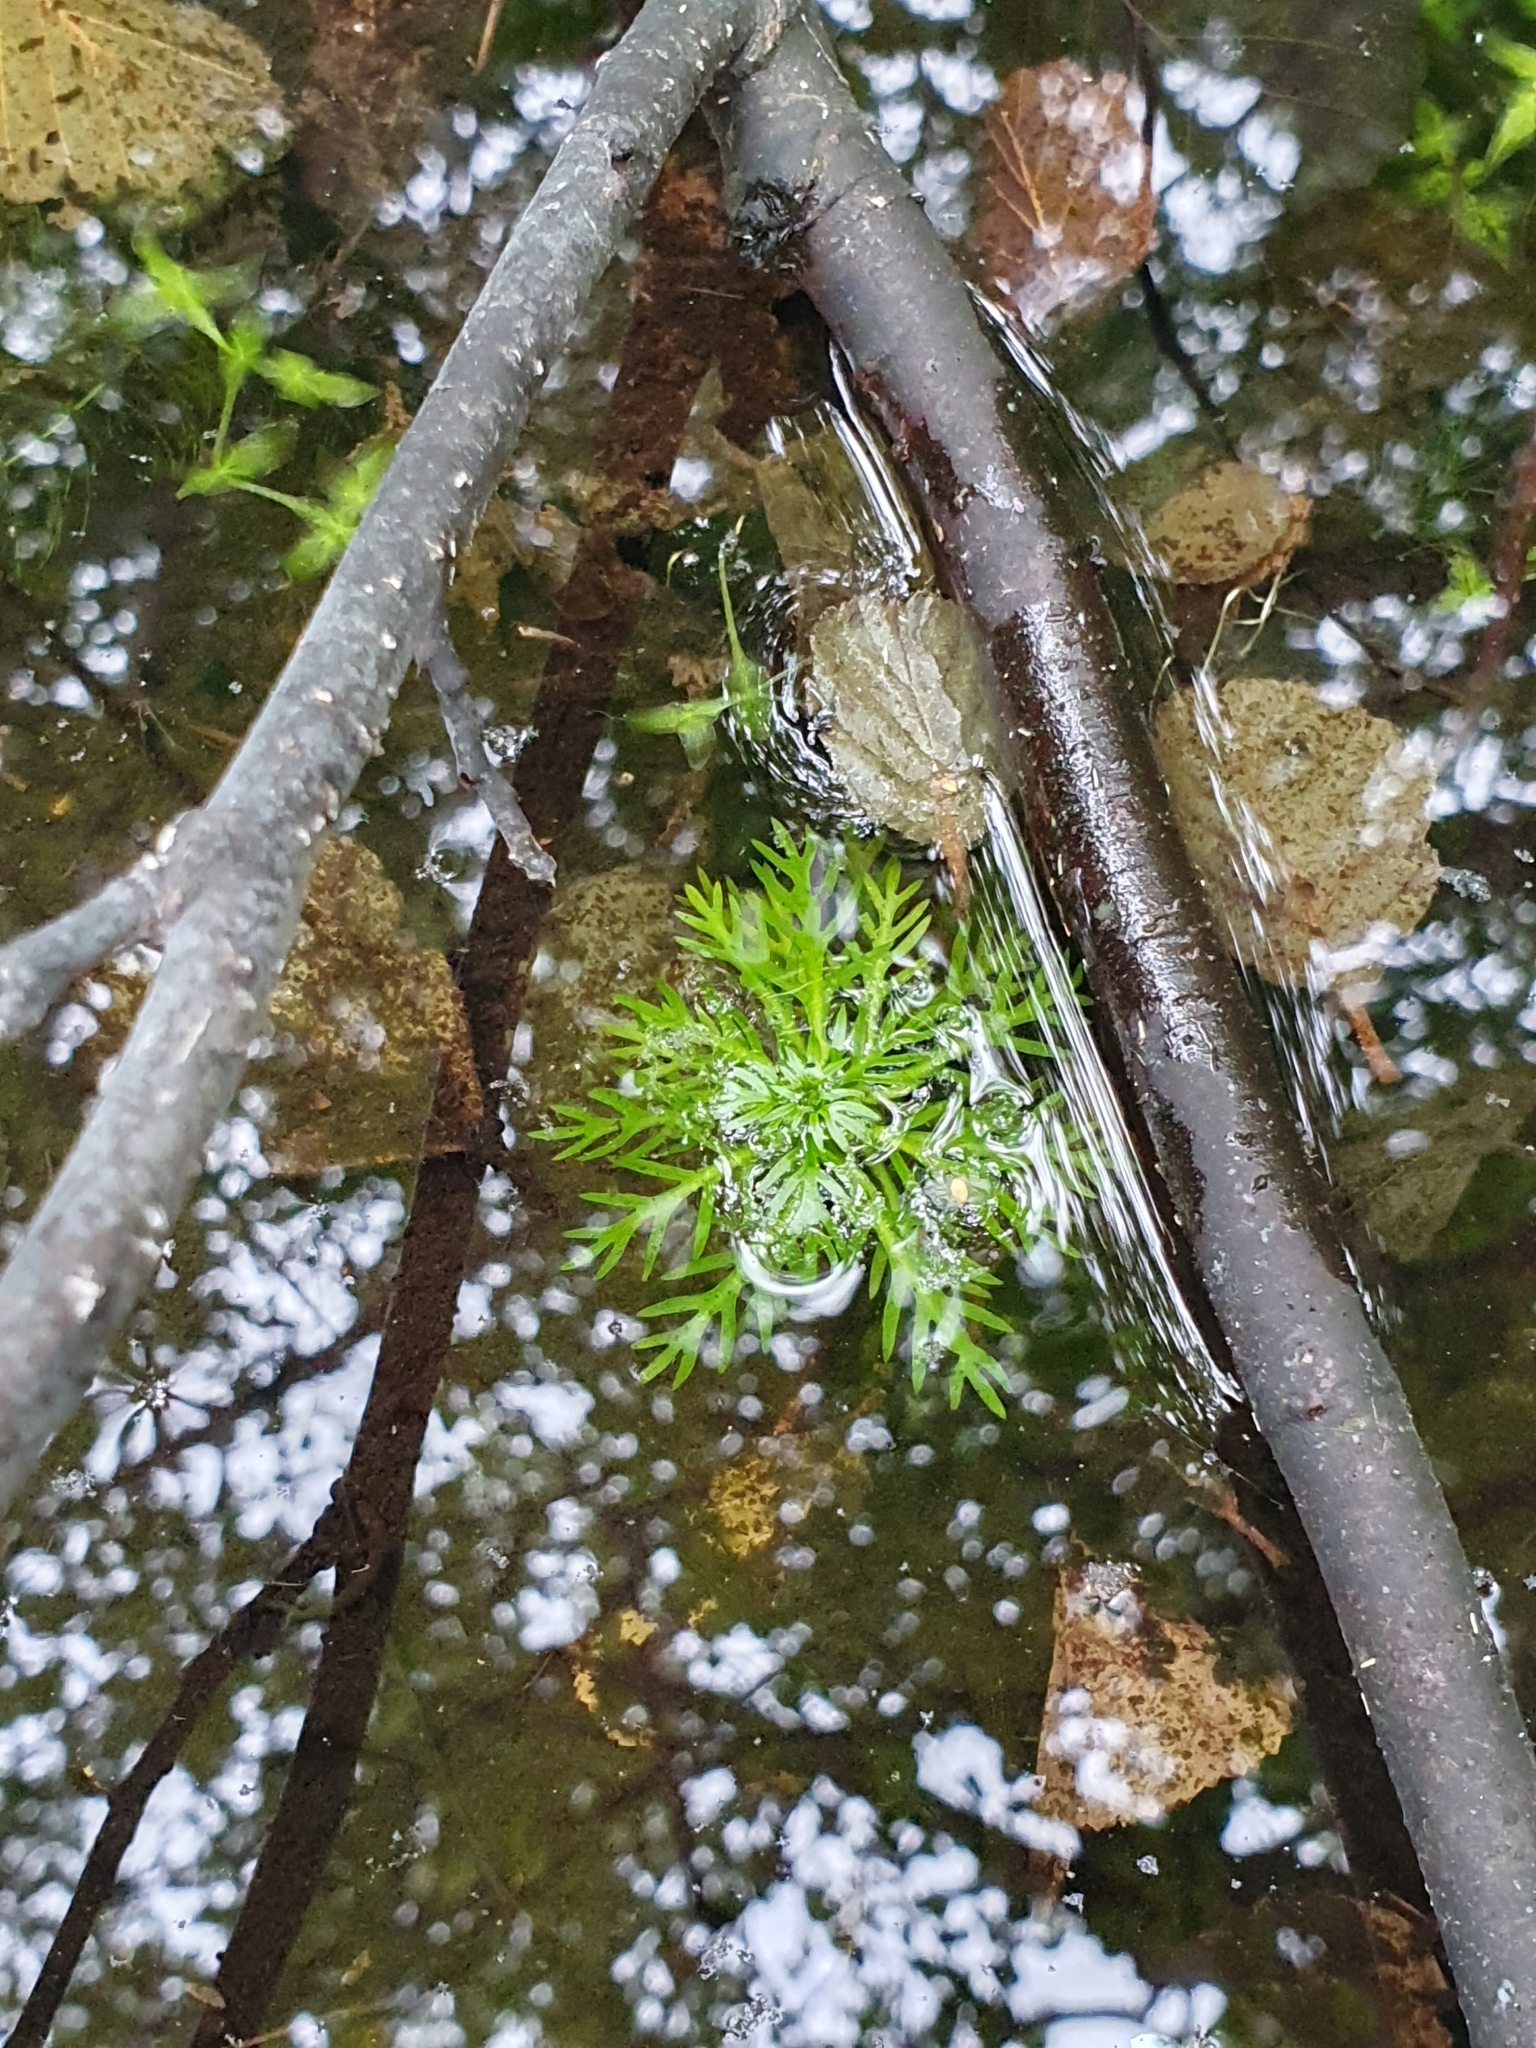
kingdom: Plantae
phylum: Tracheophyta
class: Magnoliopsida
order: Ericales
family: Primulaceae
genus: Hottonia
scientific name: Hottonia palustris
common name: Water-violet
